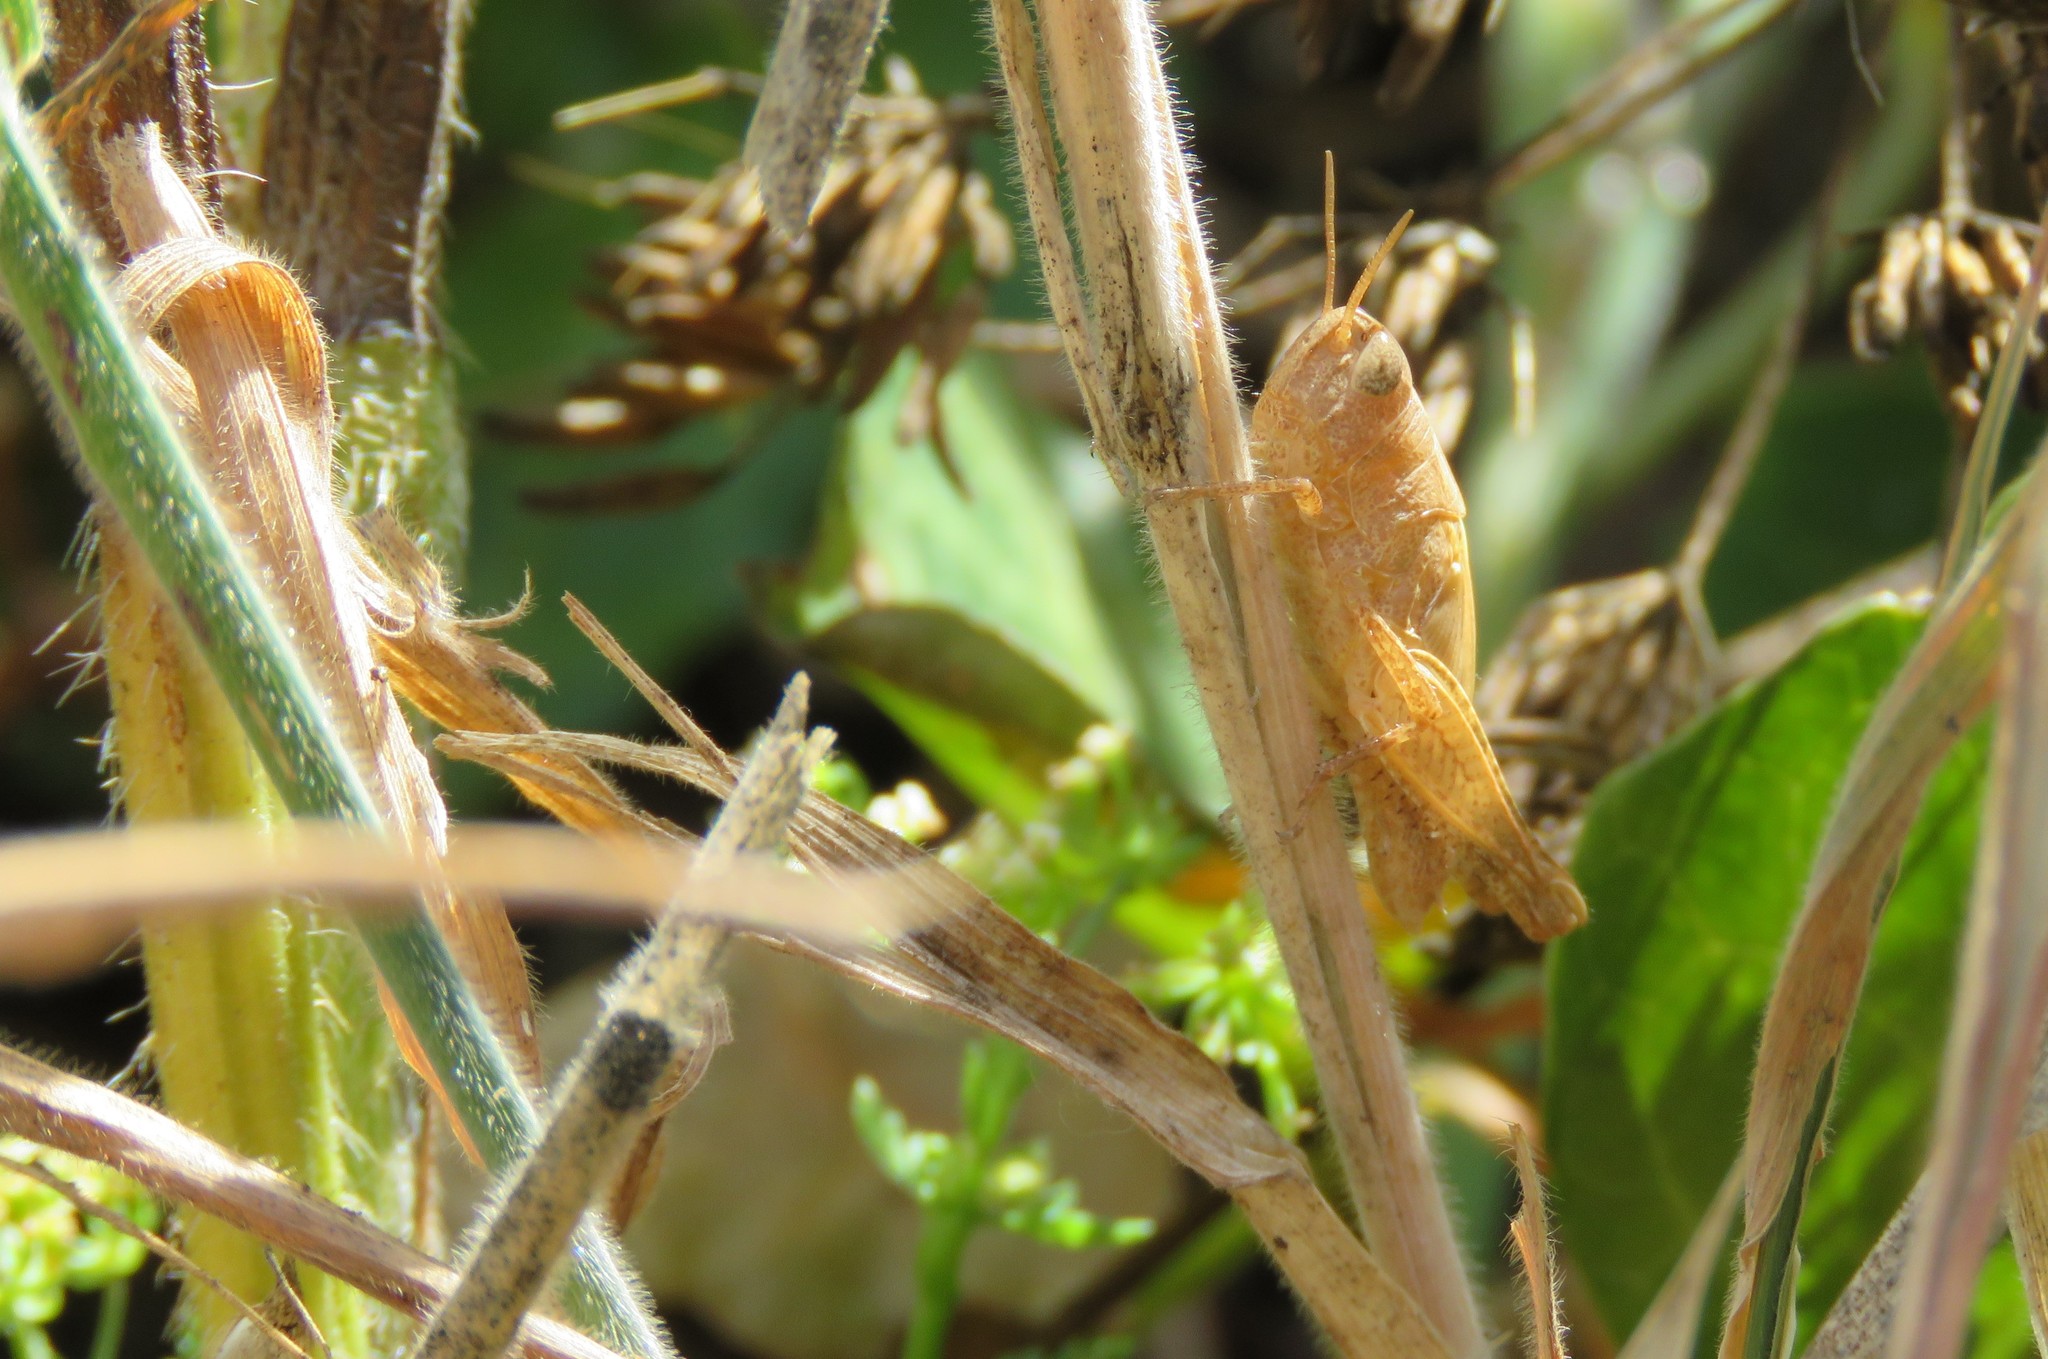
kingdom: Animalia
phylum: Arthropoda
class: Insecta
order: Orthoptera
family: Acrididae
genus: Pezotettix
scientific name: Pezotettix giornae
